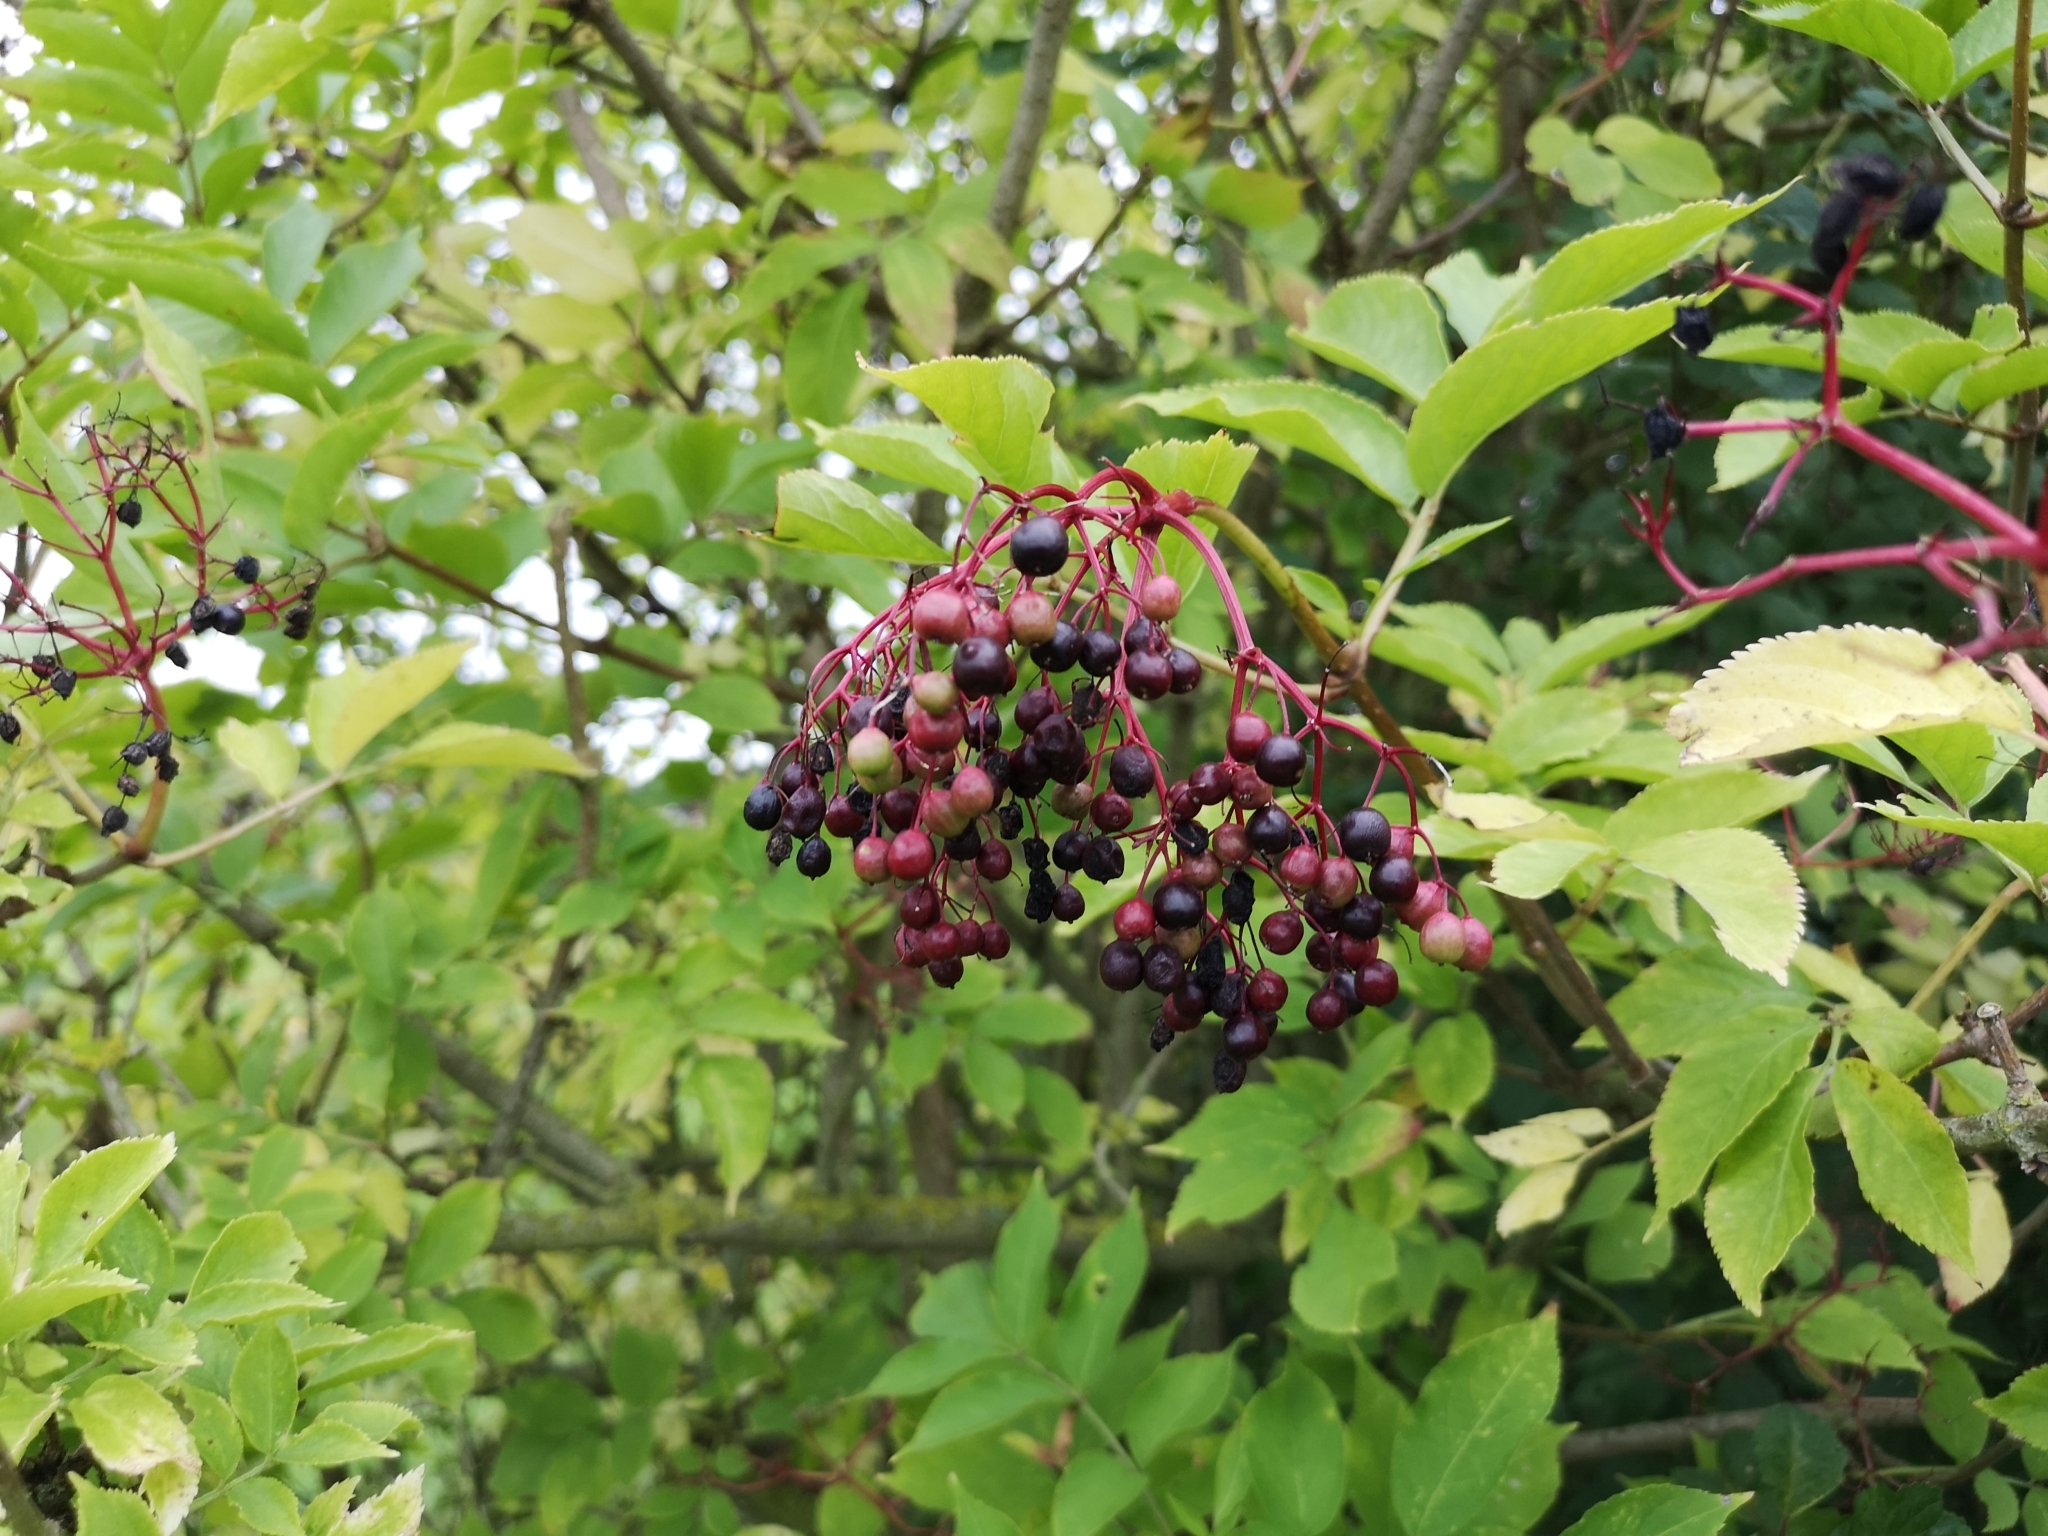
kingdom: Plantae
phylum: Tracheophyta
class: Magnoliopsida
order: Dipsacales
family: Viburnaceae
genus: Sambucus
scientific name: Sambucus nigra
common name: Elder
